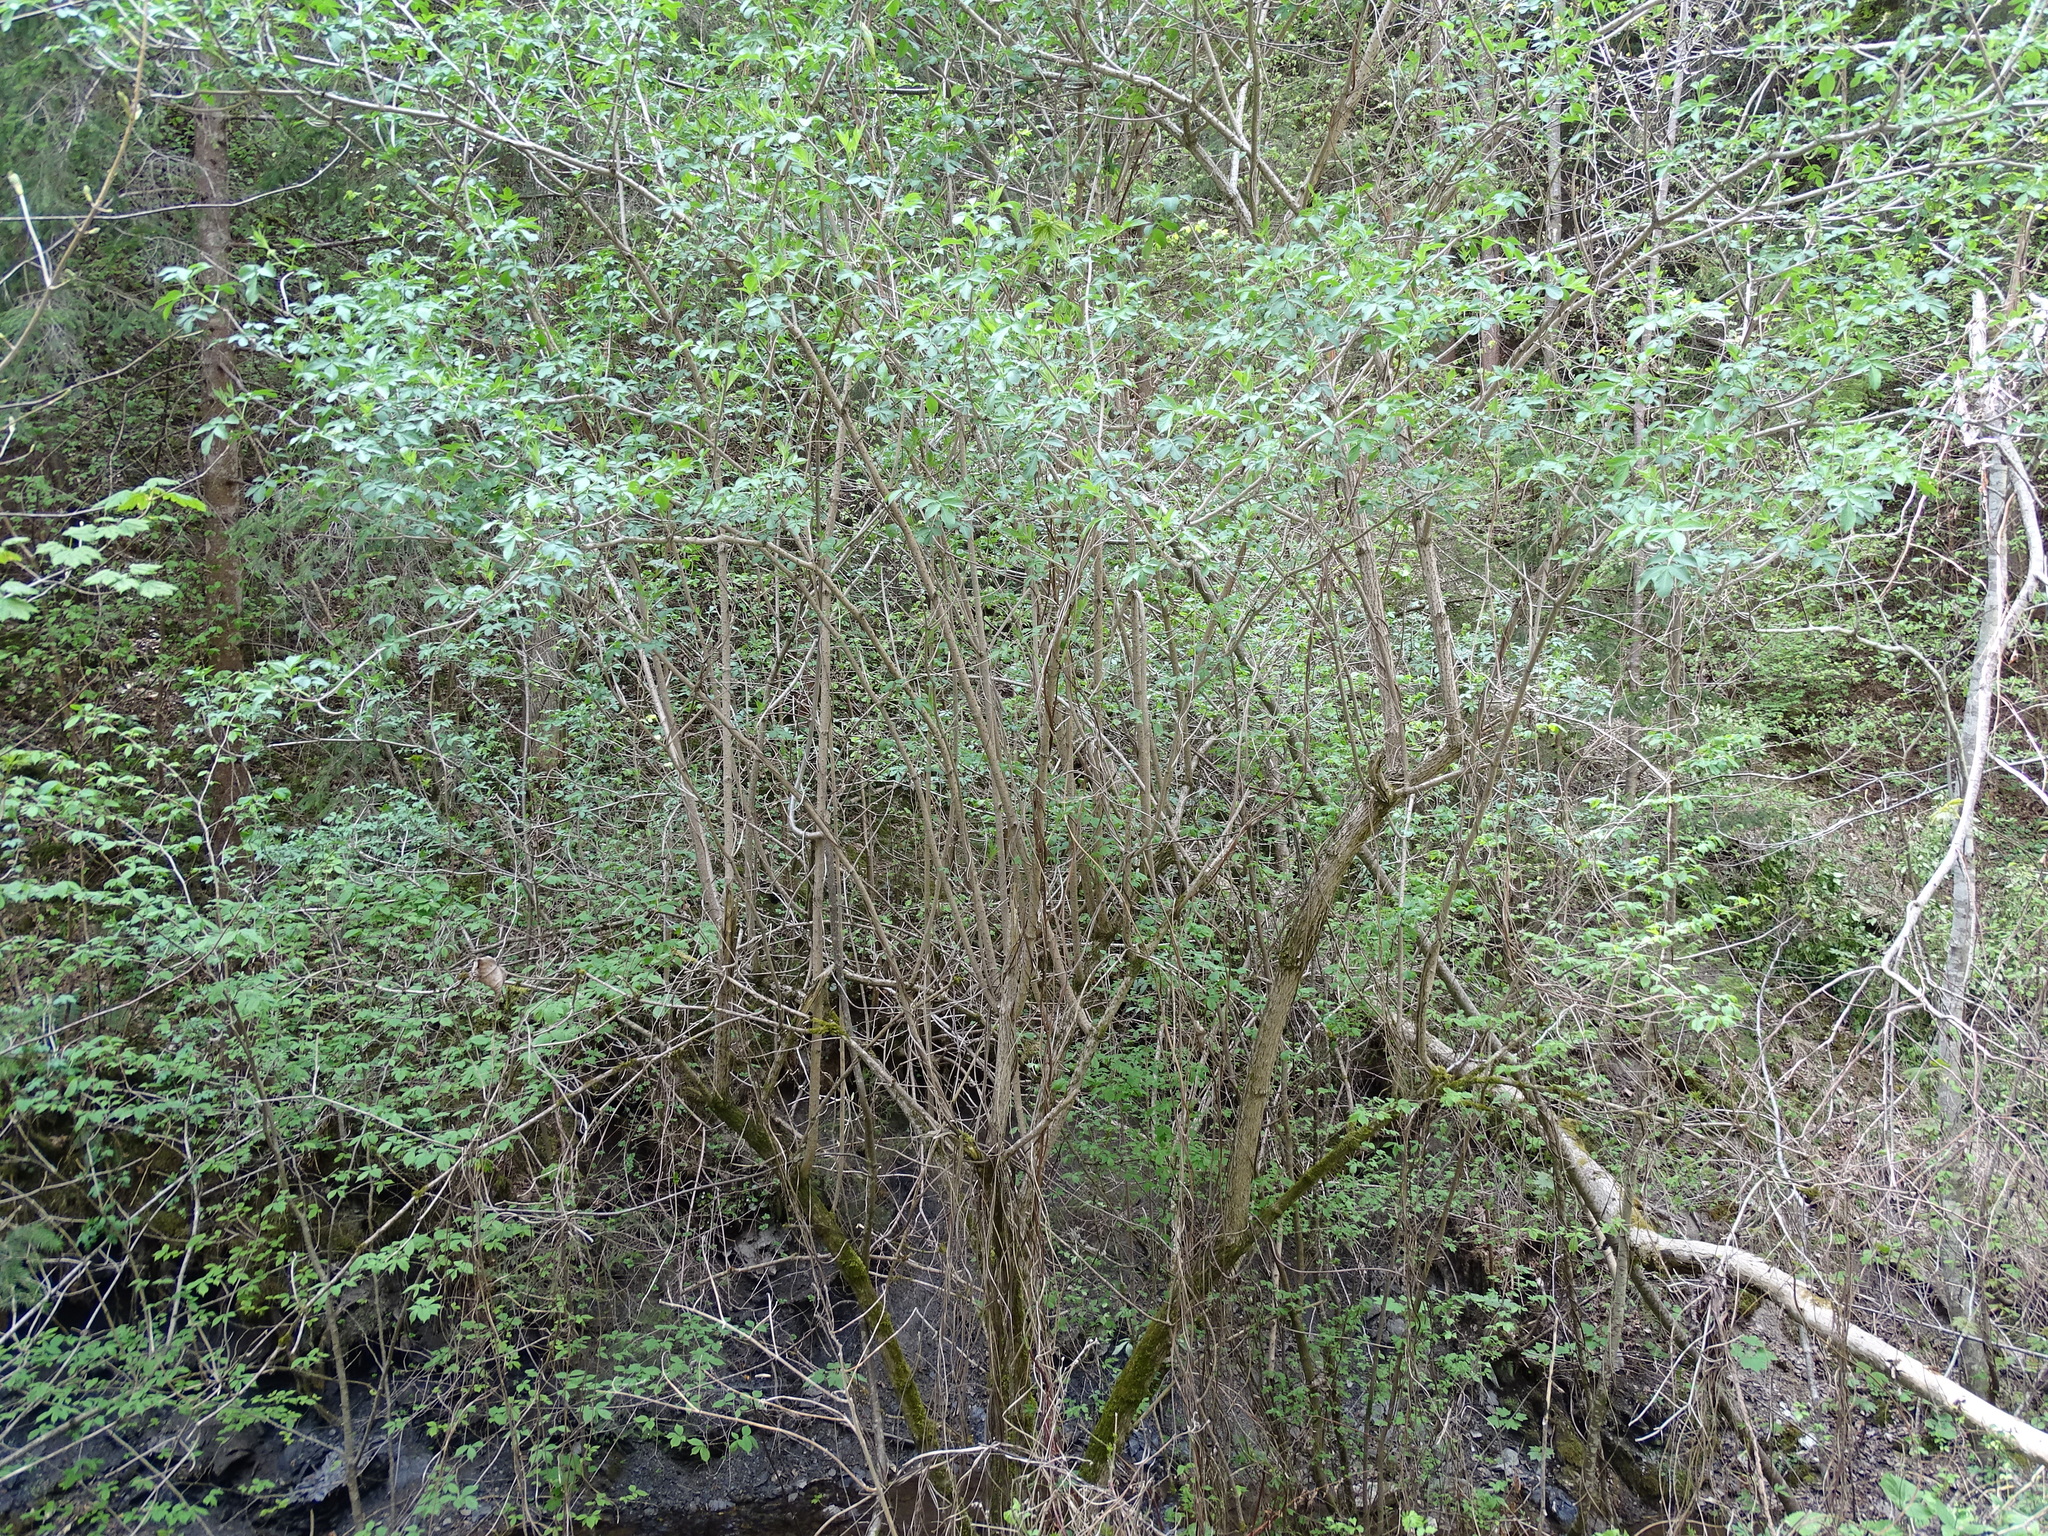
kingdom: Plantae
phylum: Tracheophyta
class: Magnoliopsida
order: Dipsacales
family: Viburnaceae
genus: Sambucus
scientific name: Sambucus nigra
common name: Elder
